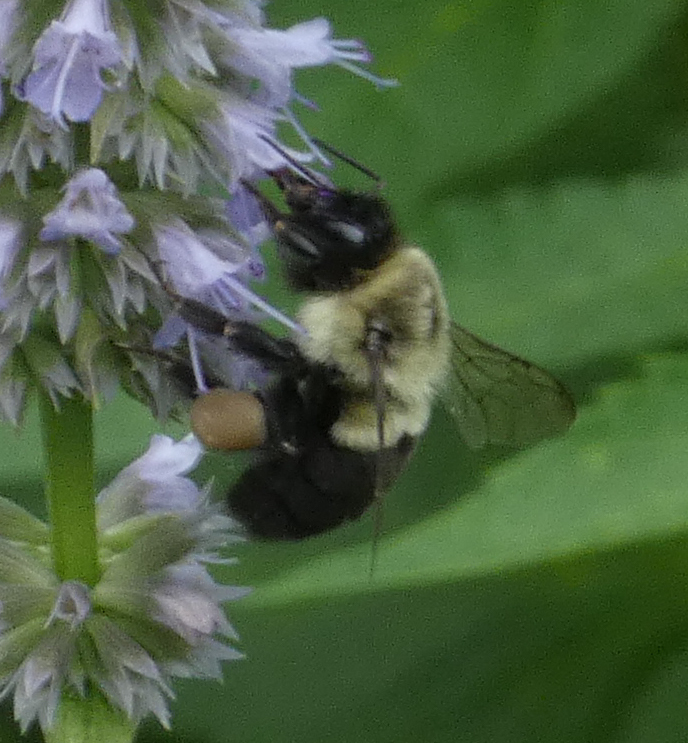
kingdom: Animalia
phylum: Arthropoda
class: Insecta
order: Hymenoptera
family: Apidae
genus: Bombus
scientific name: Bombus impatiens
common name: Common eastern bumble bee
